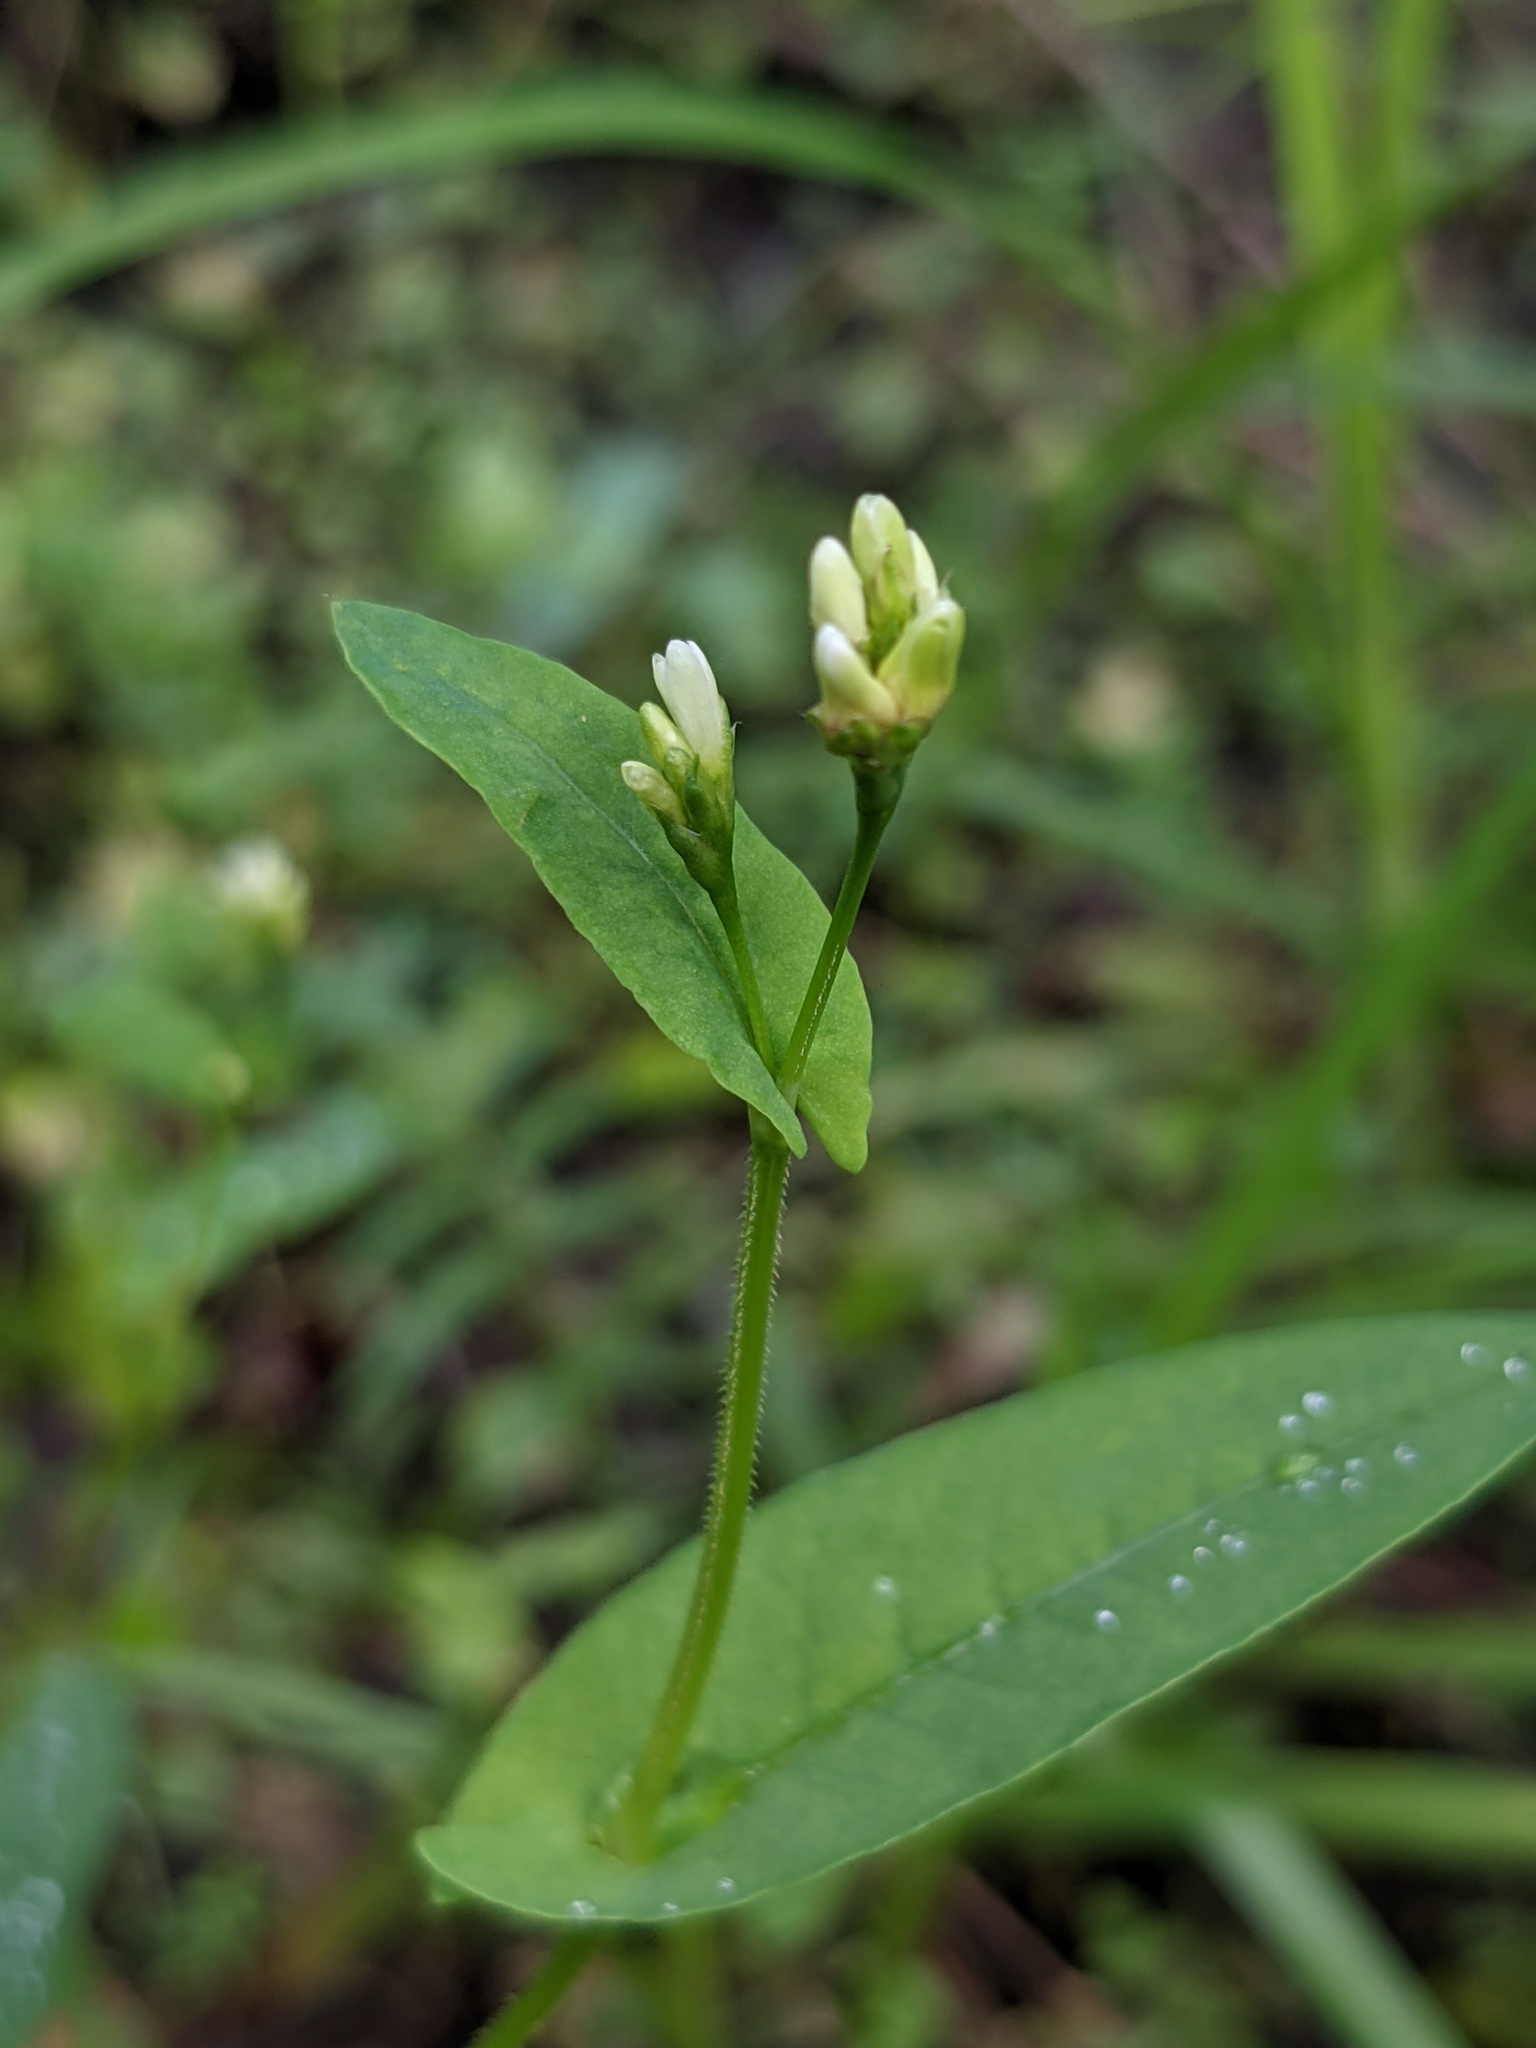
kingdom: Plantae
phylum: Tracheophyta
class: Magnoliopsida
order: Caryophyllales
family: Polygonaceae
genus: Persicaria
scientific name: Persicaria sagittata
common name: American tearthumb
